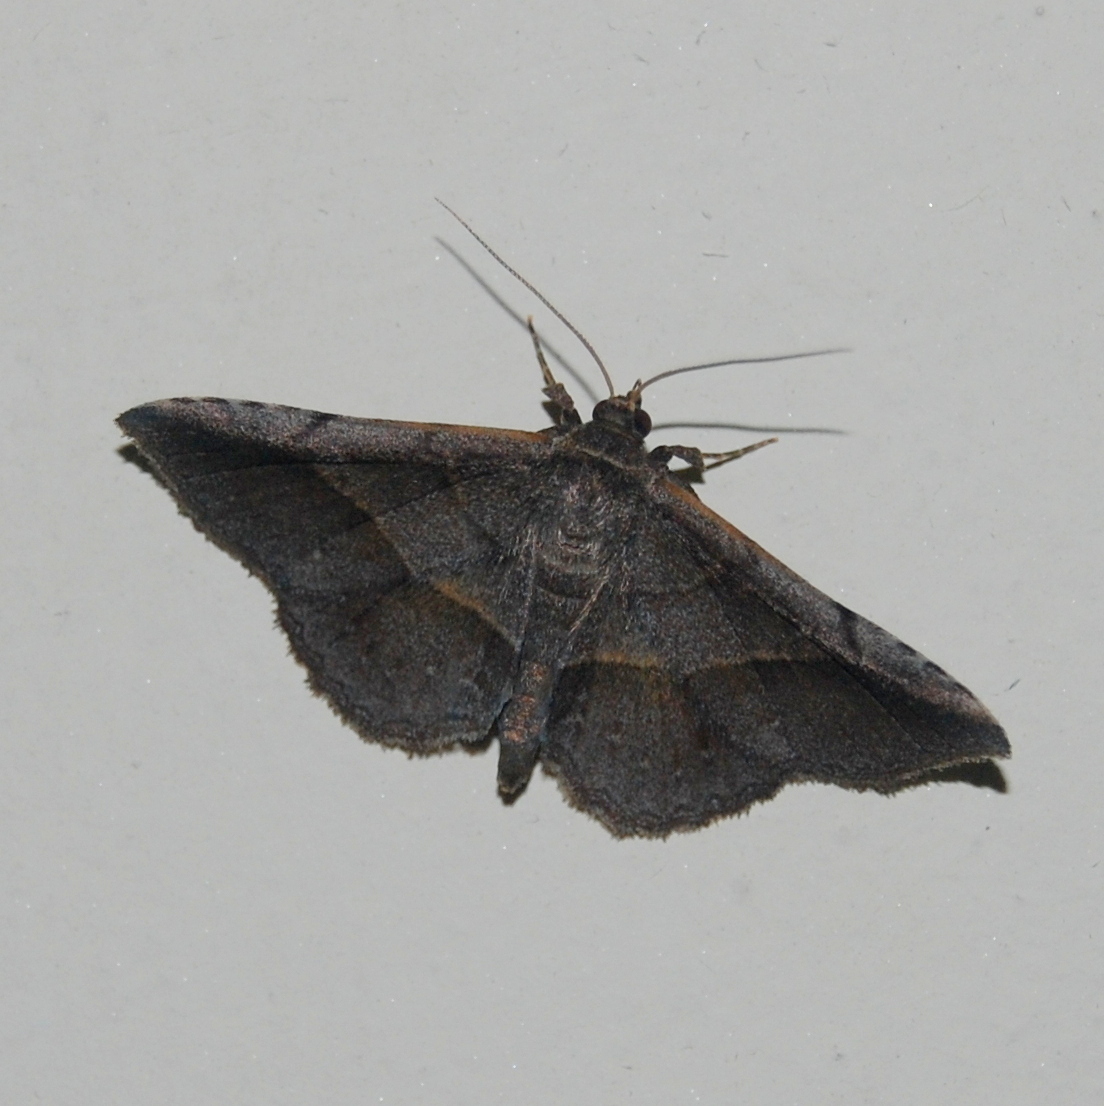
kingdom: Animalia
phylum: Arthropoda
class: Insecta
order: Lepidoptera
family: Erebidae
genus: Coenobela
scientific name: Coenobela joha
